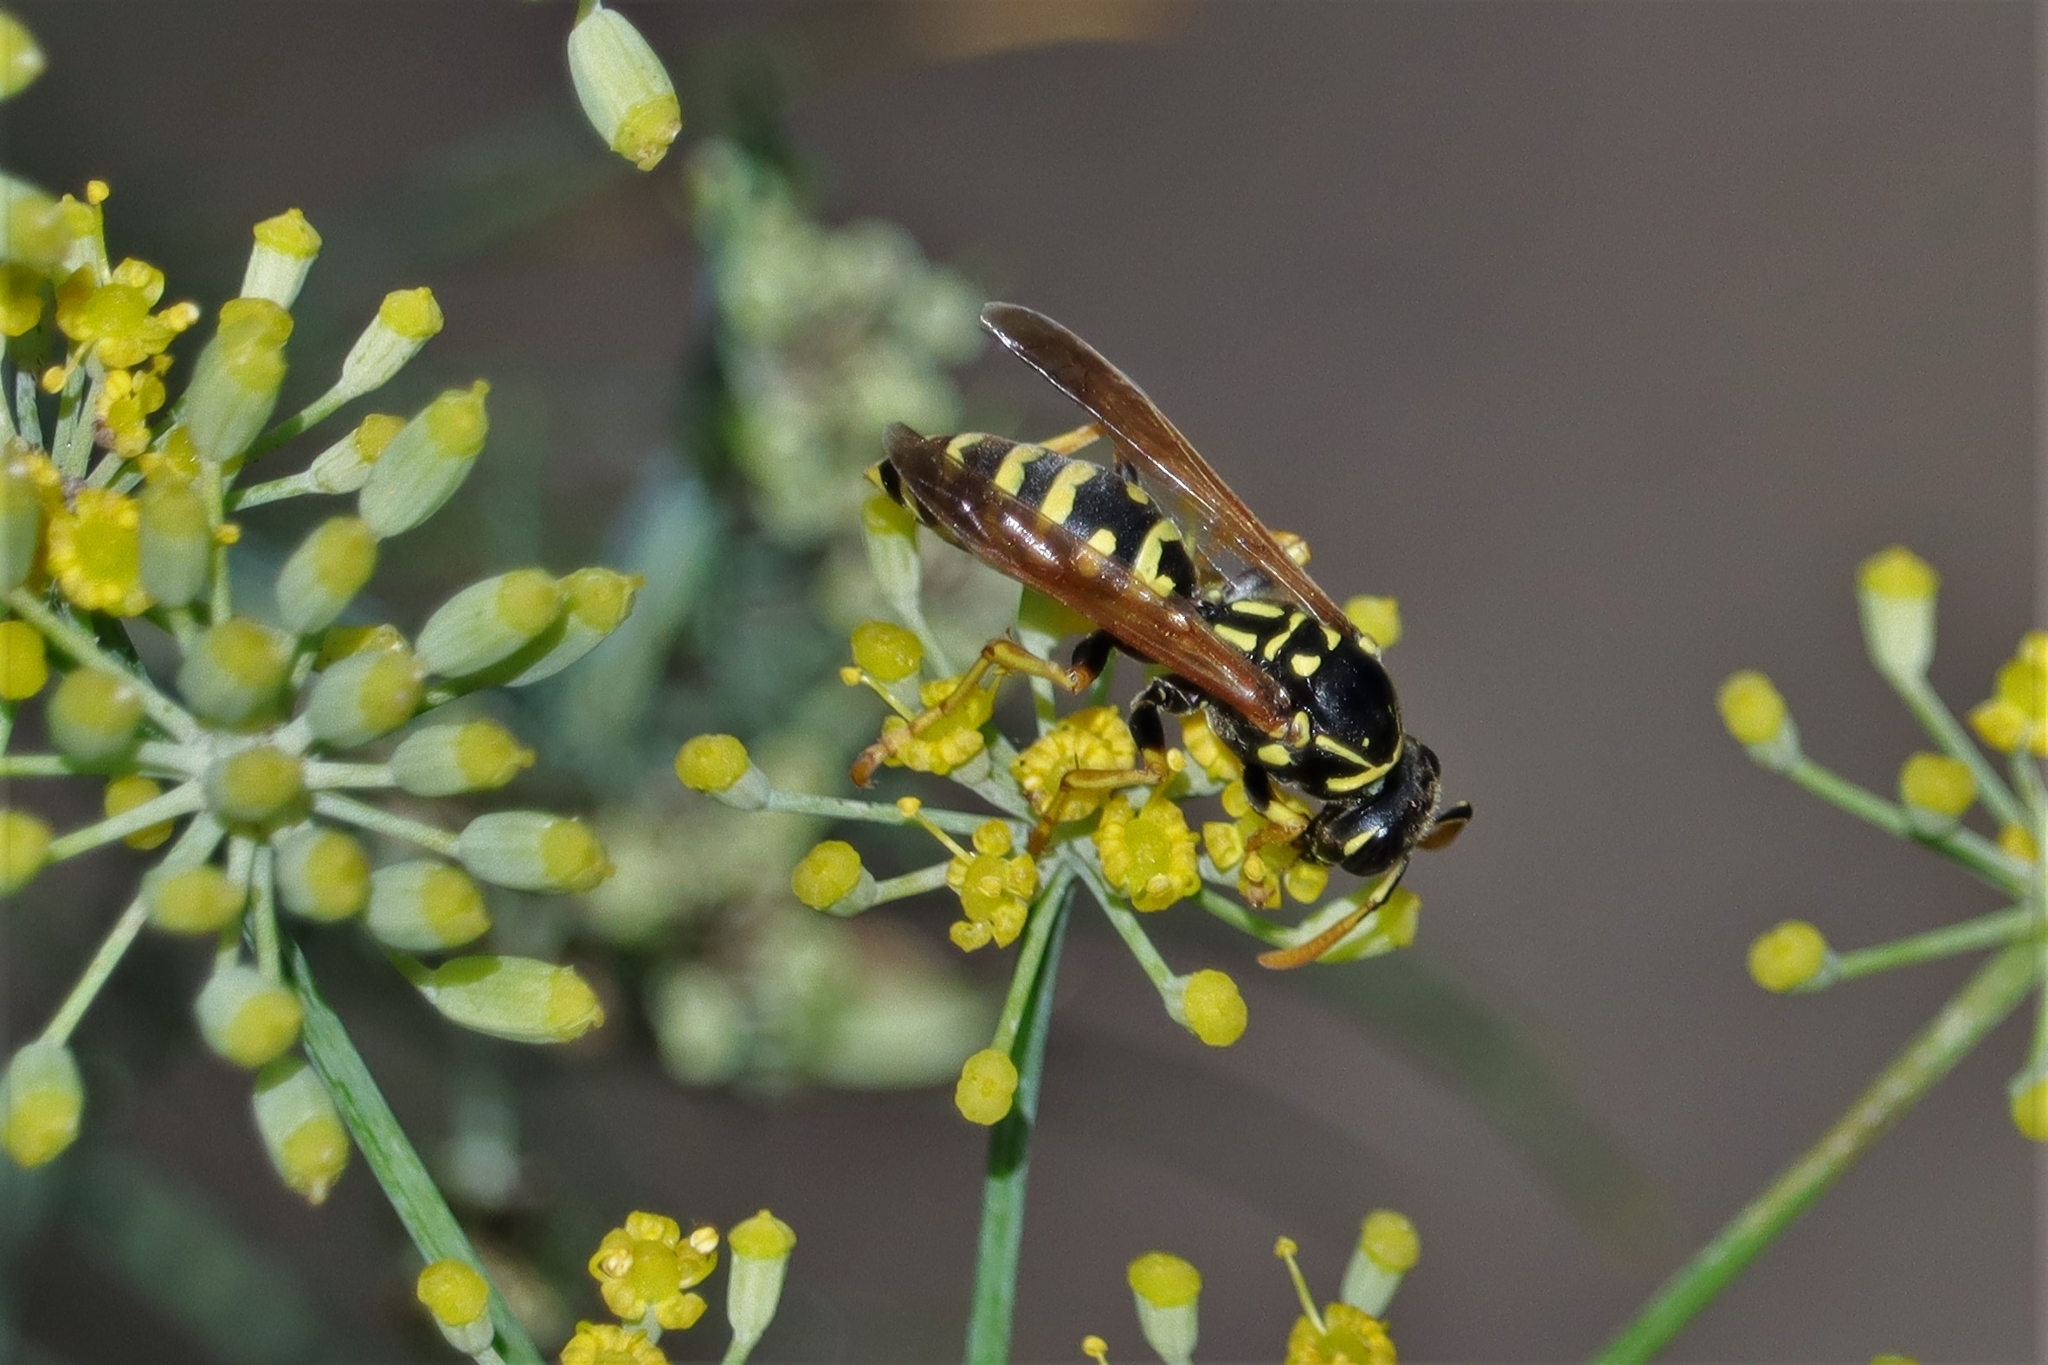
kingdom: Animalia
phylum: Arthropoda
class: Insecta
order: Hymenoptera
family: Eumenidae
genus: Polistes
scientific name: Polistes dominula
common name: Paper wasp
